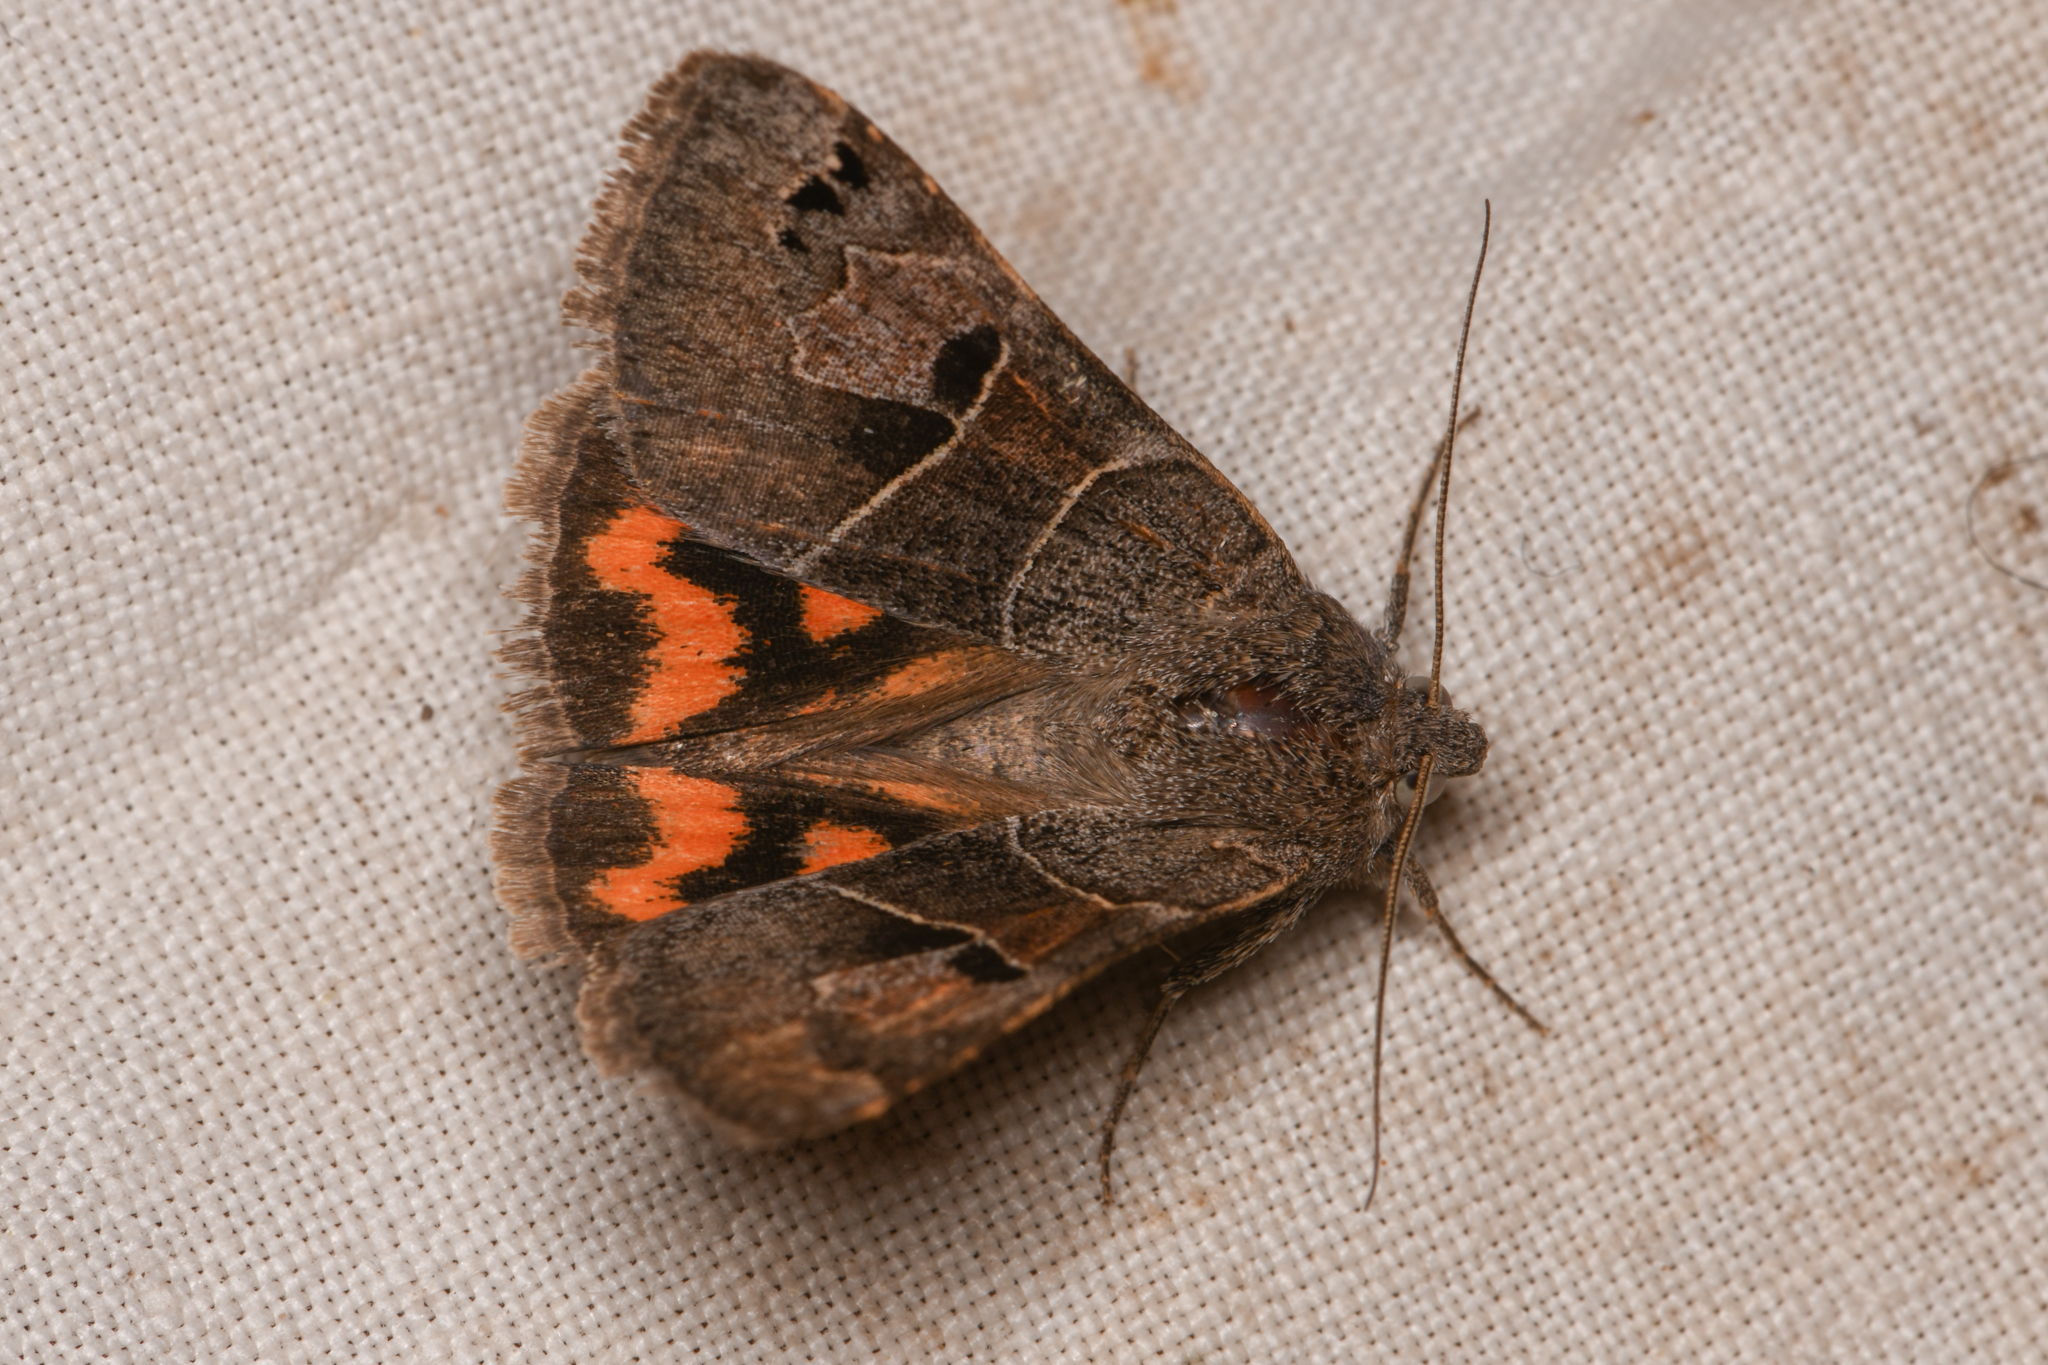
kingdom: Animalia
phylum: Arthropoda
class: Insecta
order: Lepidoptera
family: Erebidae
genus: Drasteria
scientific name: Drasteria edwardsii
